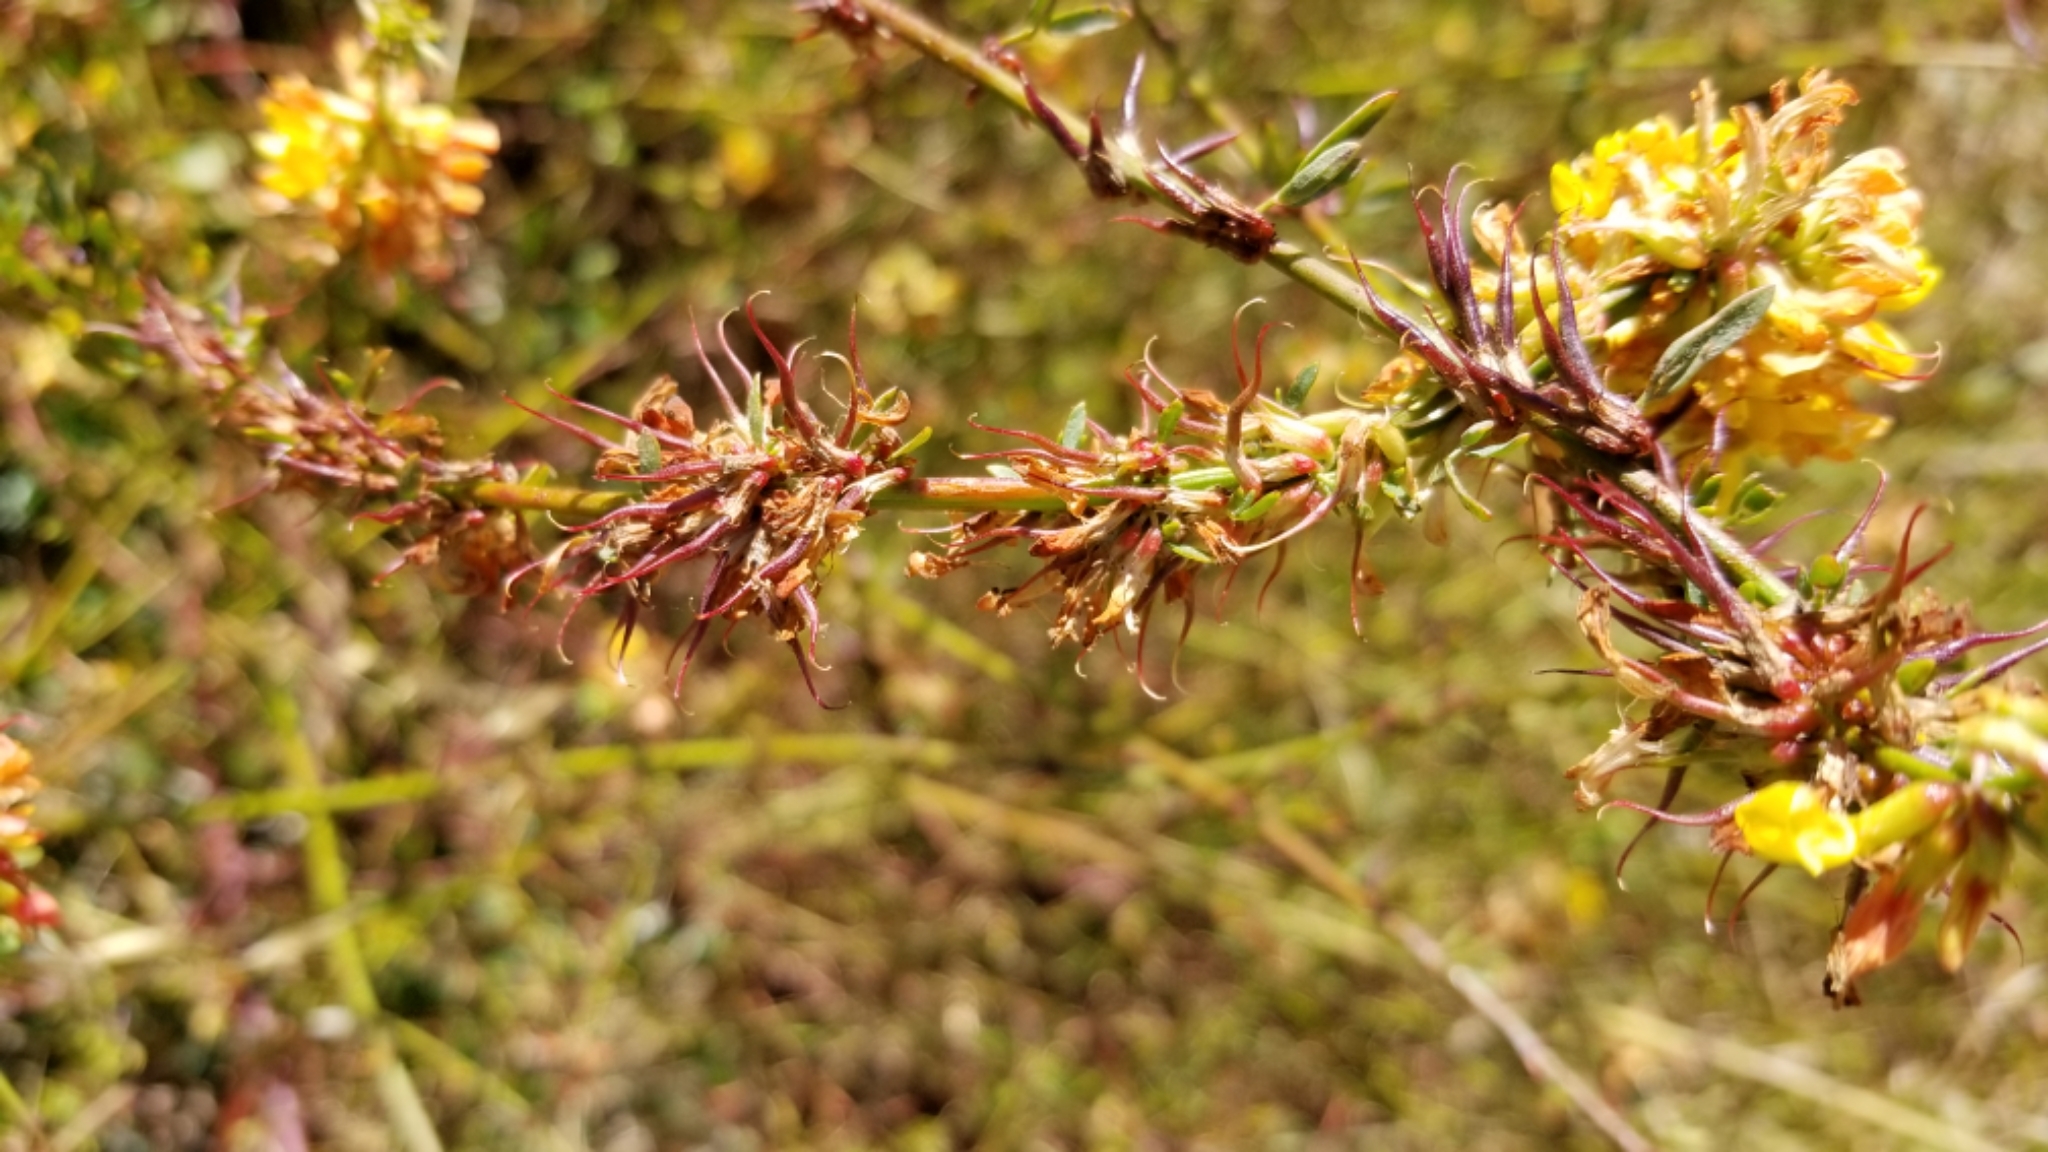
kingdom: Plantae
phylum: Tracheophyta
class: Magnoliopsida
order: Fabales
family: Fabaceae
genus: Acmispon
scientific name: Acmispon glaber
